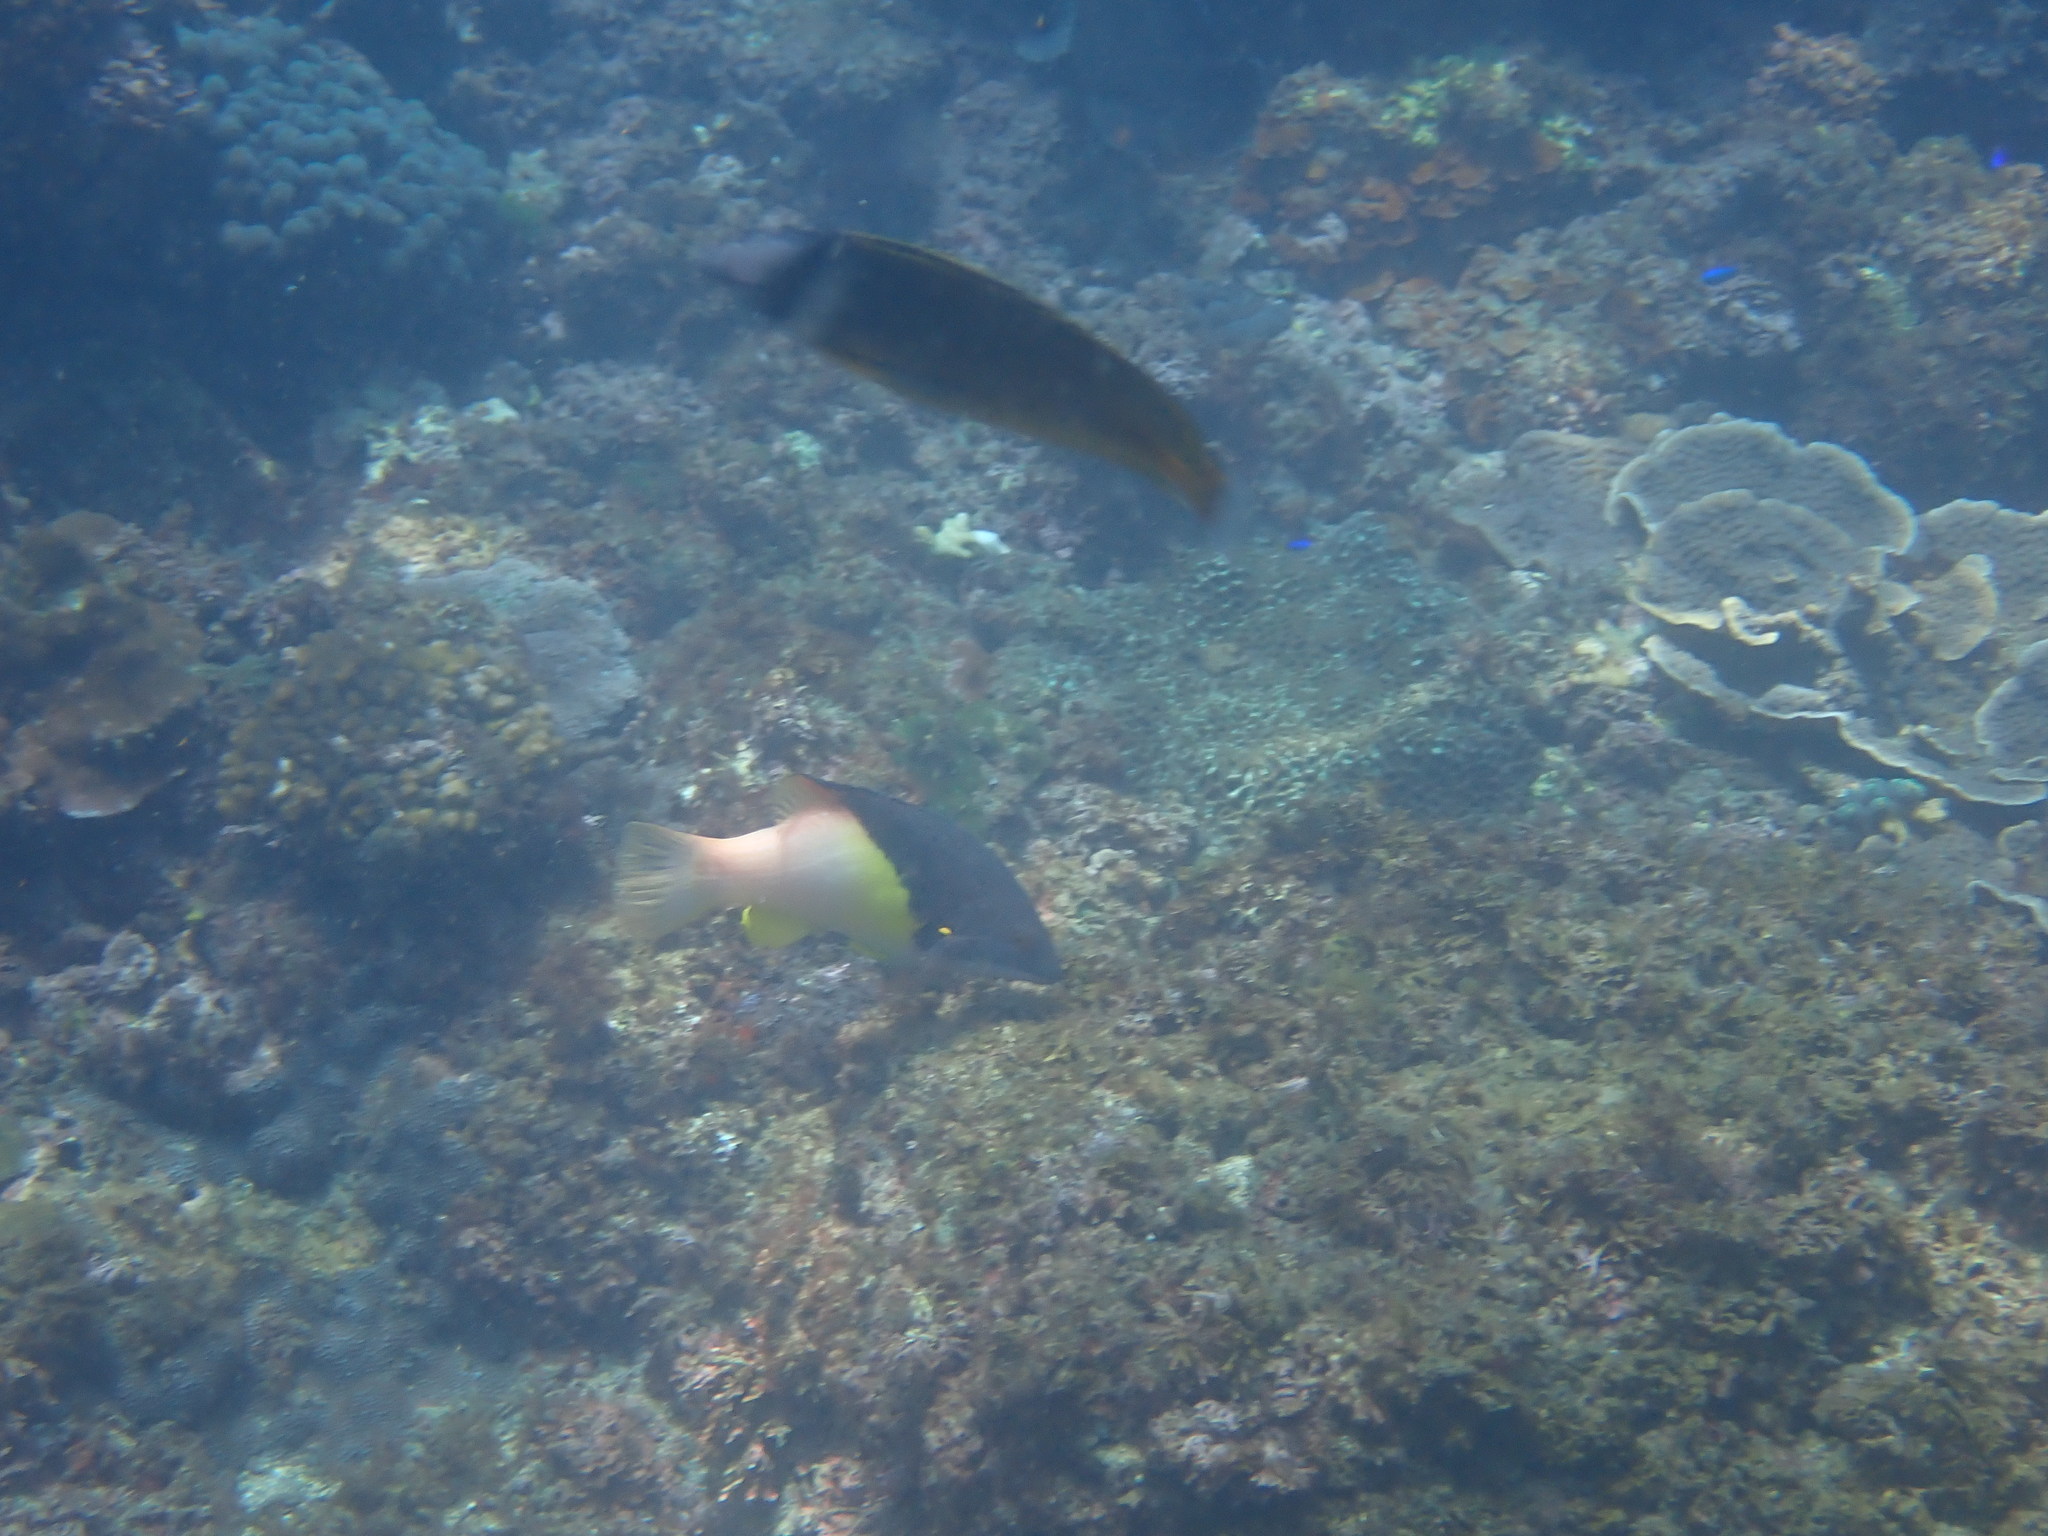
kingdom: Animalia
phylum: Chordata
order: Perciformes
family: Labridae
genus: Bodianus
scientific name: Bodianus mesothorax
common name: Coral hogfish
